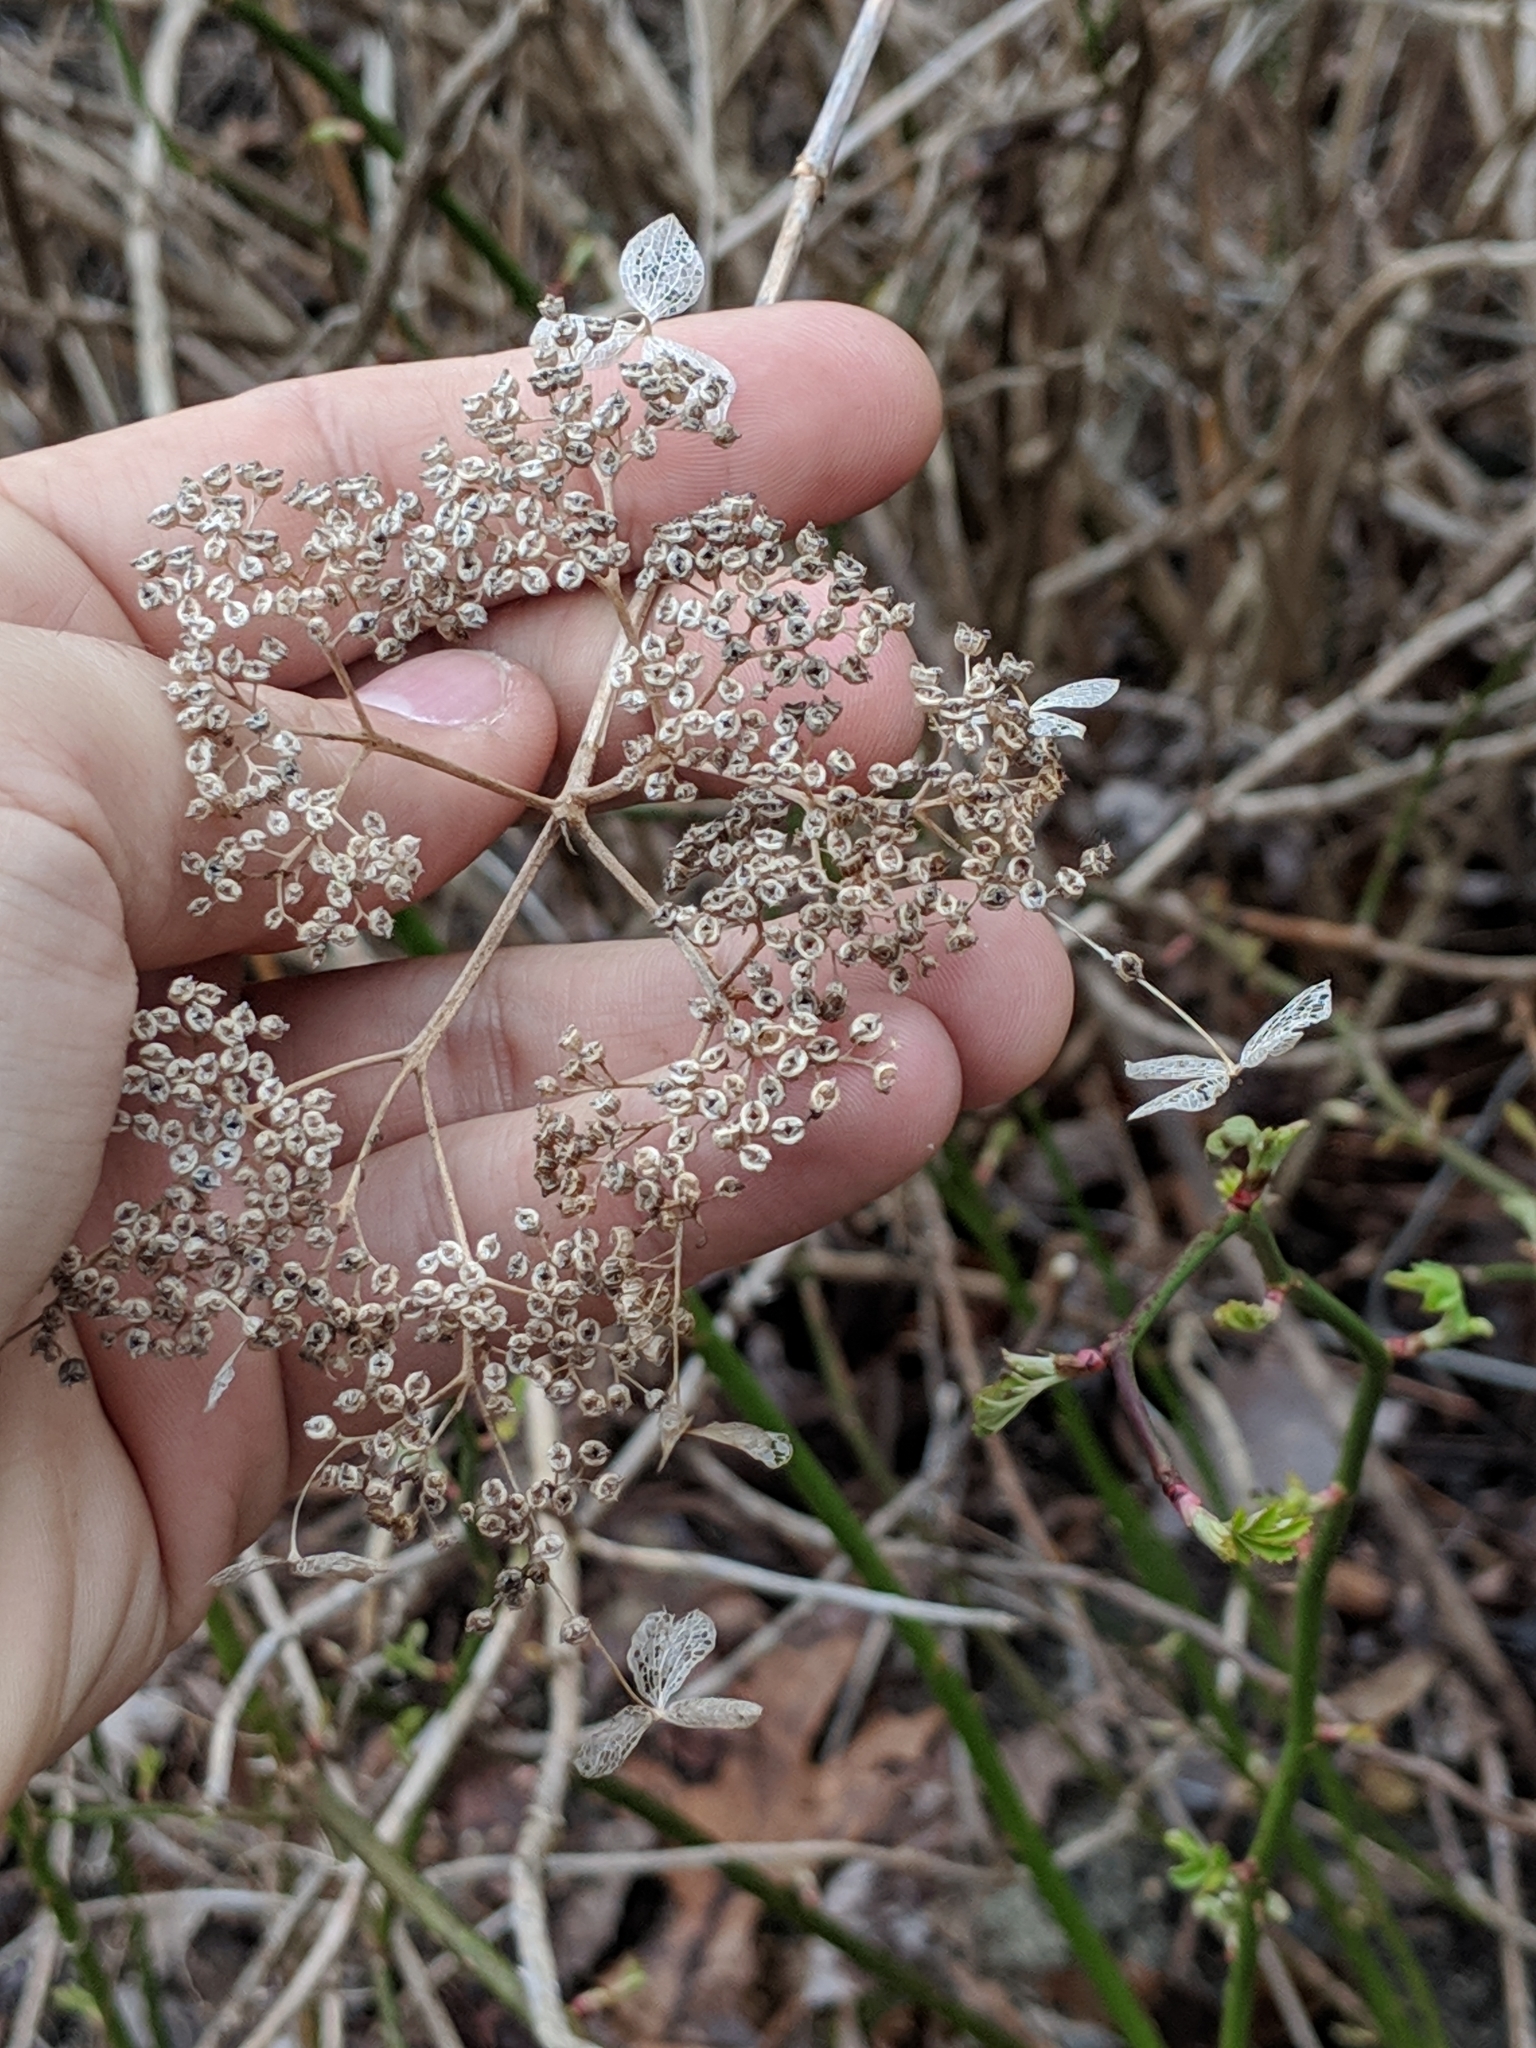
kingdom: Plantae
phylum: Tracheophyta
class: Magnoliopsida
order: Cornales
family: Hydrangeaceae
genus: Hydrangea
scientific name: Hydrangea arborescens
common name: Sevenbark
